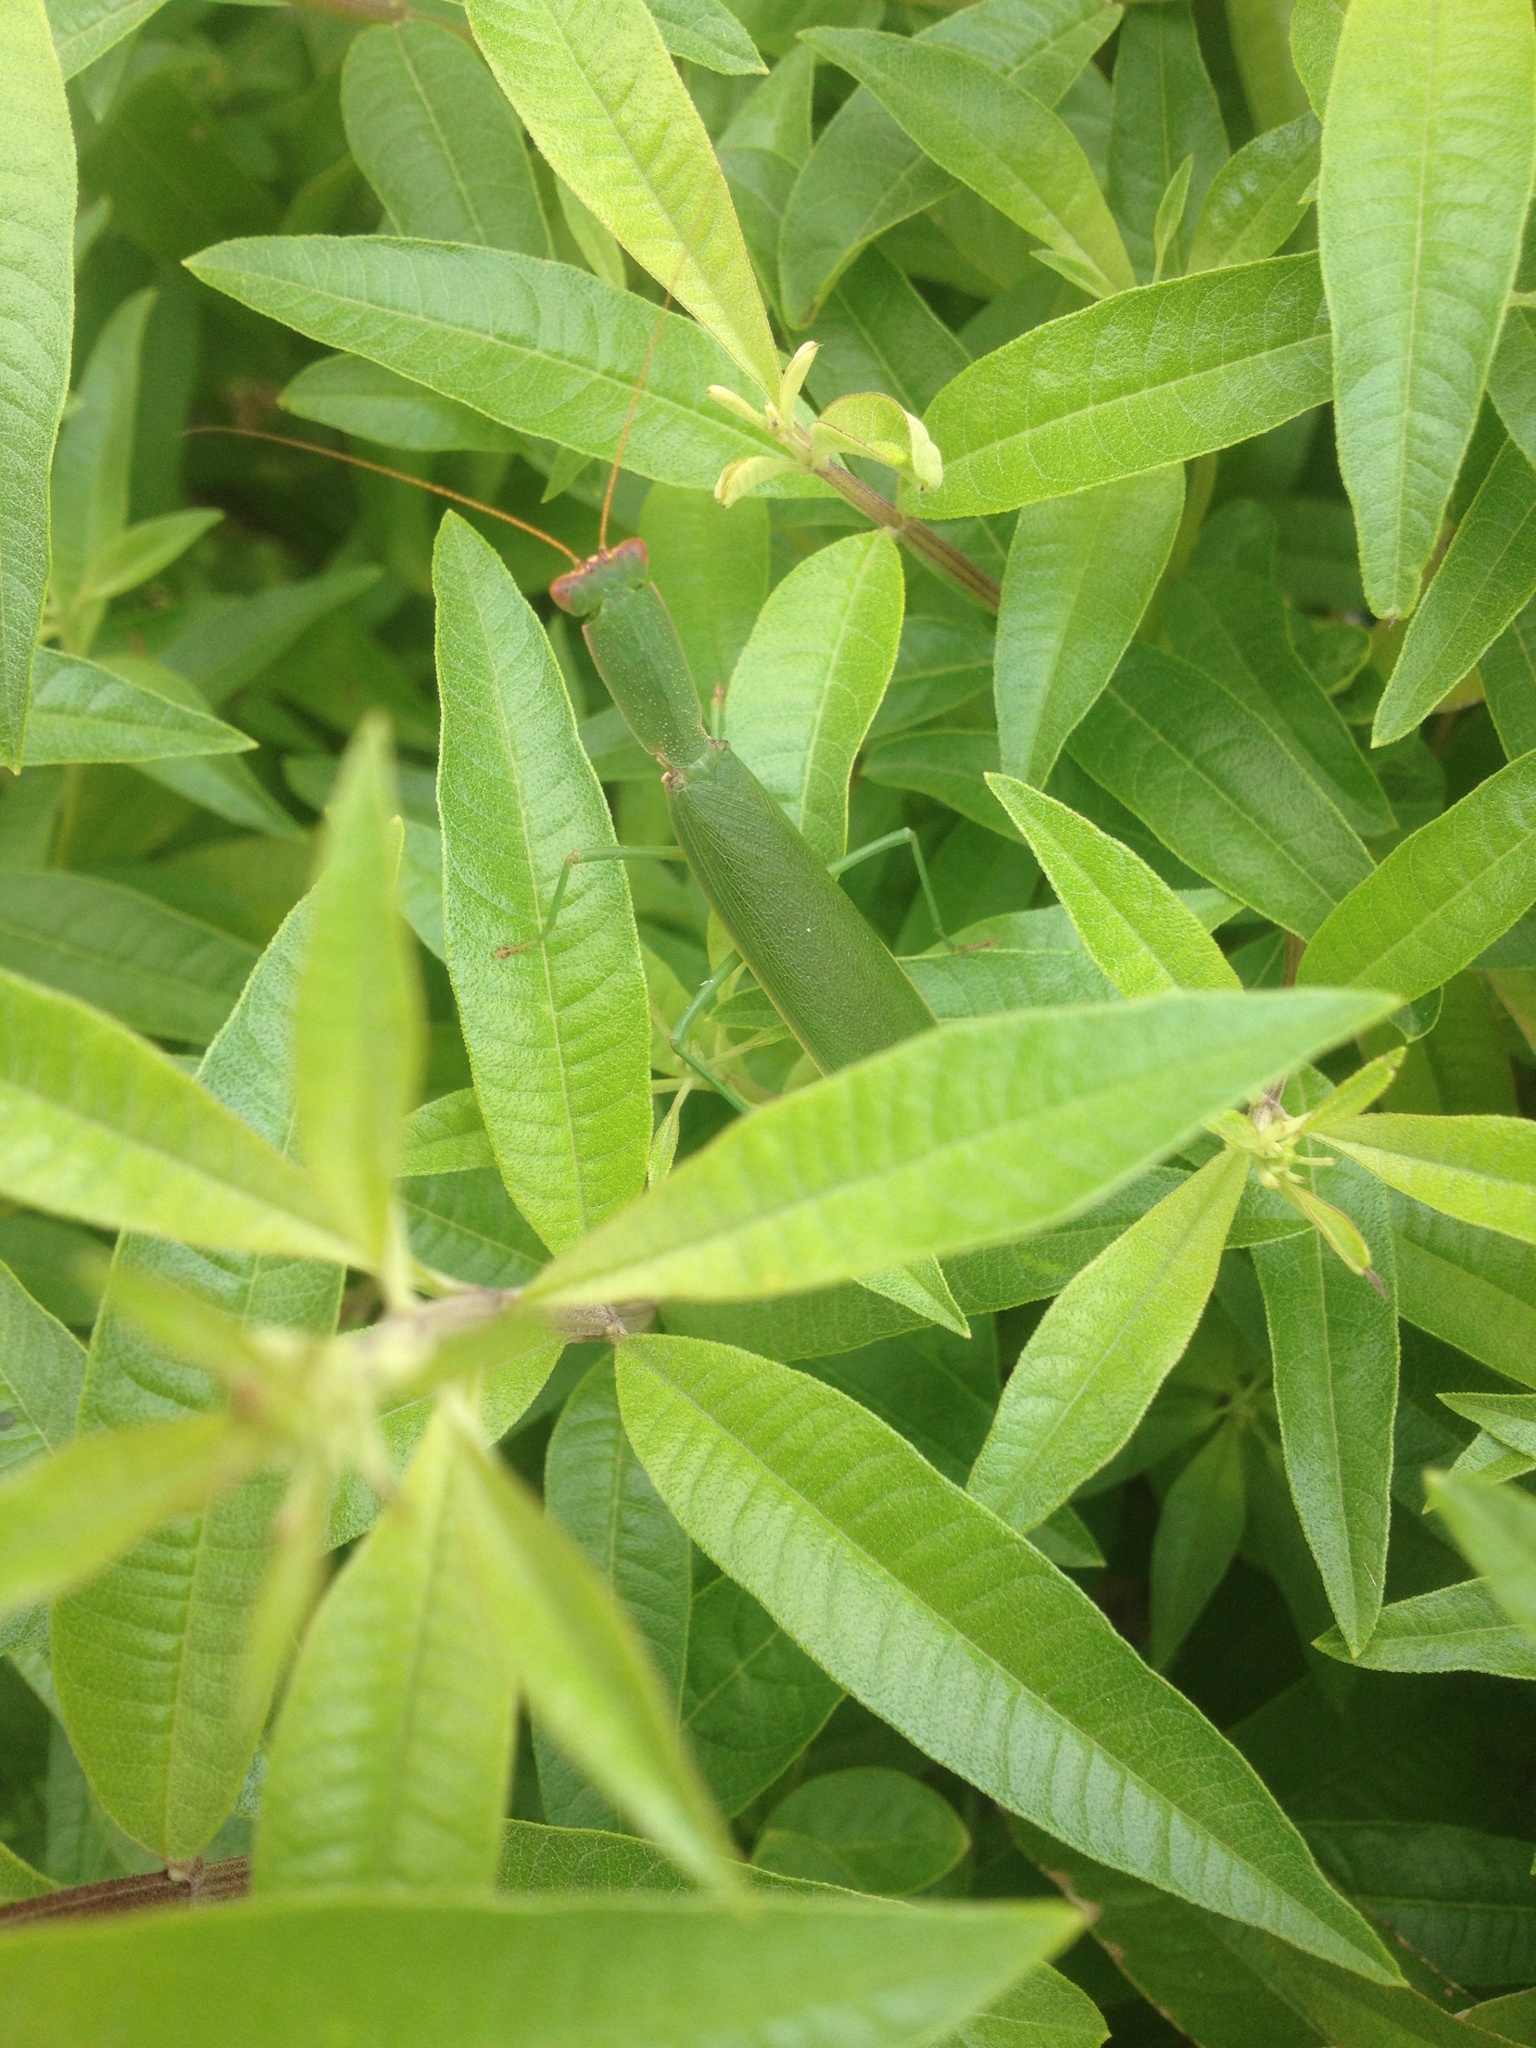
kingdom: Animalia
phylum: Arthropoda
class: Insecta
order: Mantodea
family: Mantidae
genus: Orthodera
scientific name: Orthodera novaezealandiae
